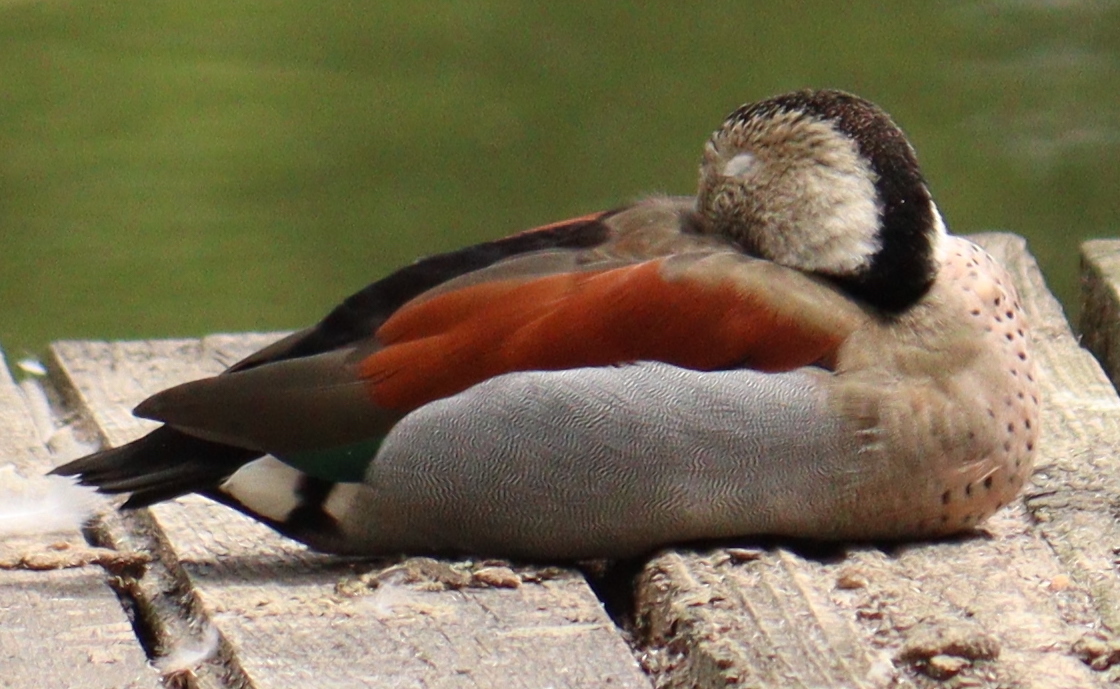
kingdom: Animalia
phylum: Chordata
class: Aves
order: Anseriformes
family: Anatidae
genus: Callonetta
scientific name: Callonetta leucophrys
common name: Ringed teal
